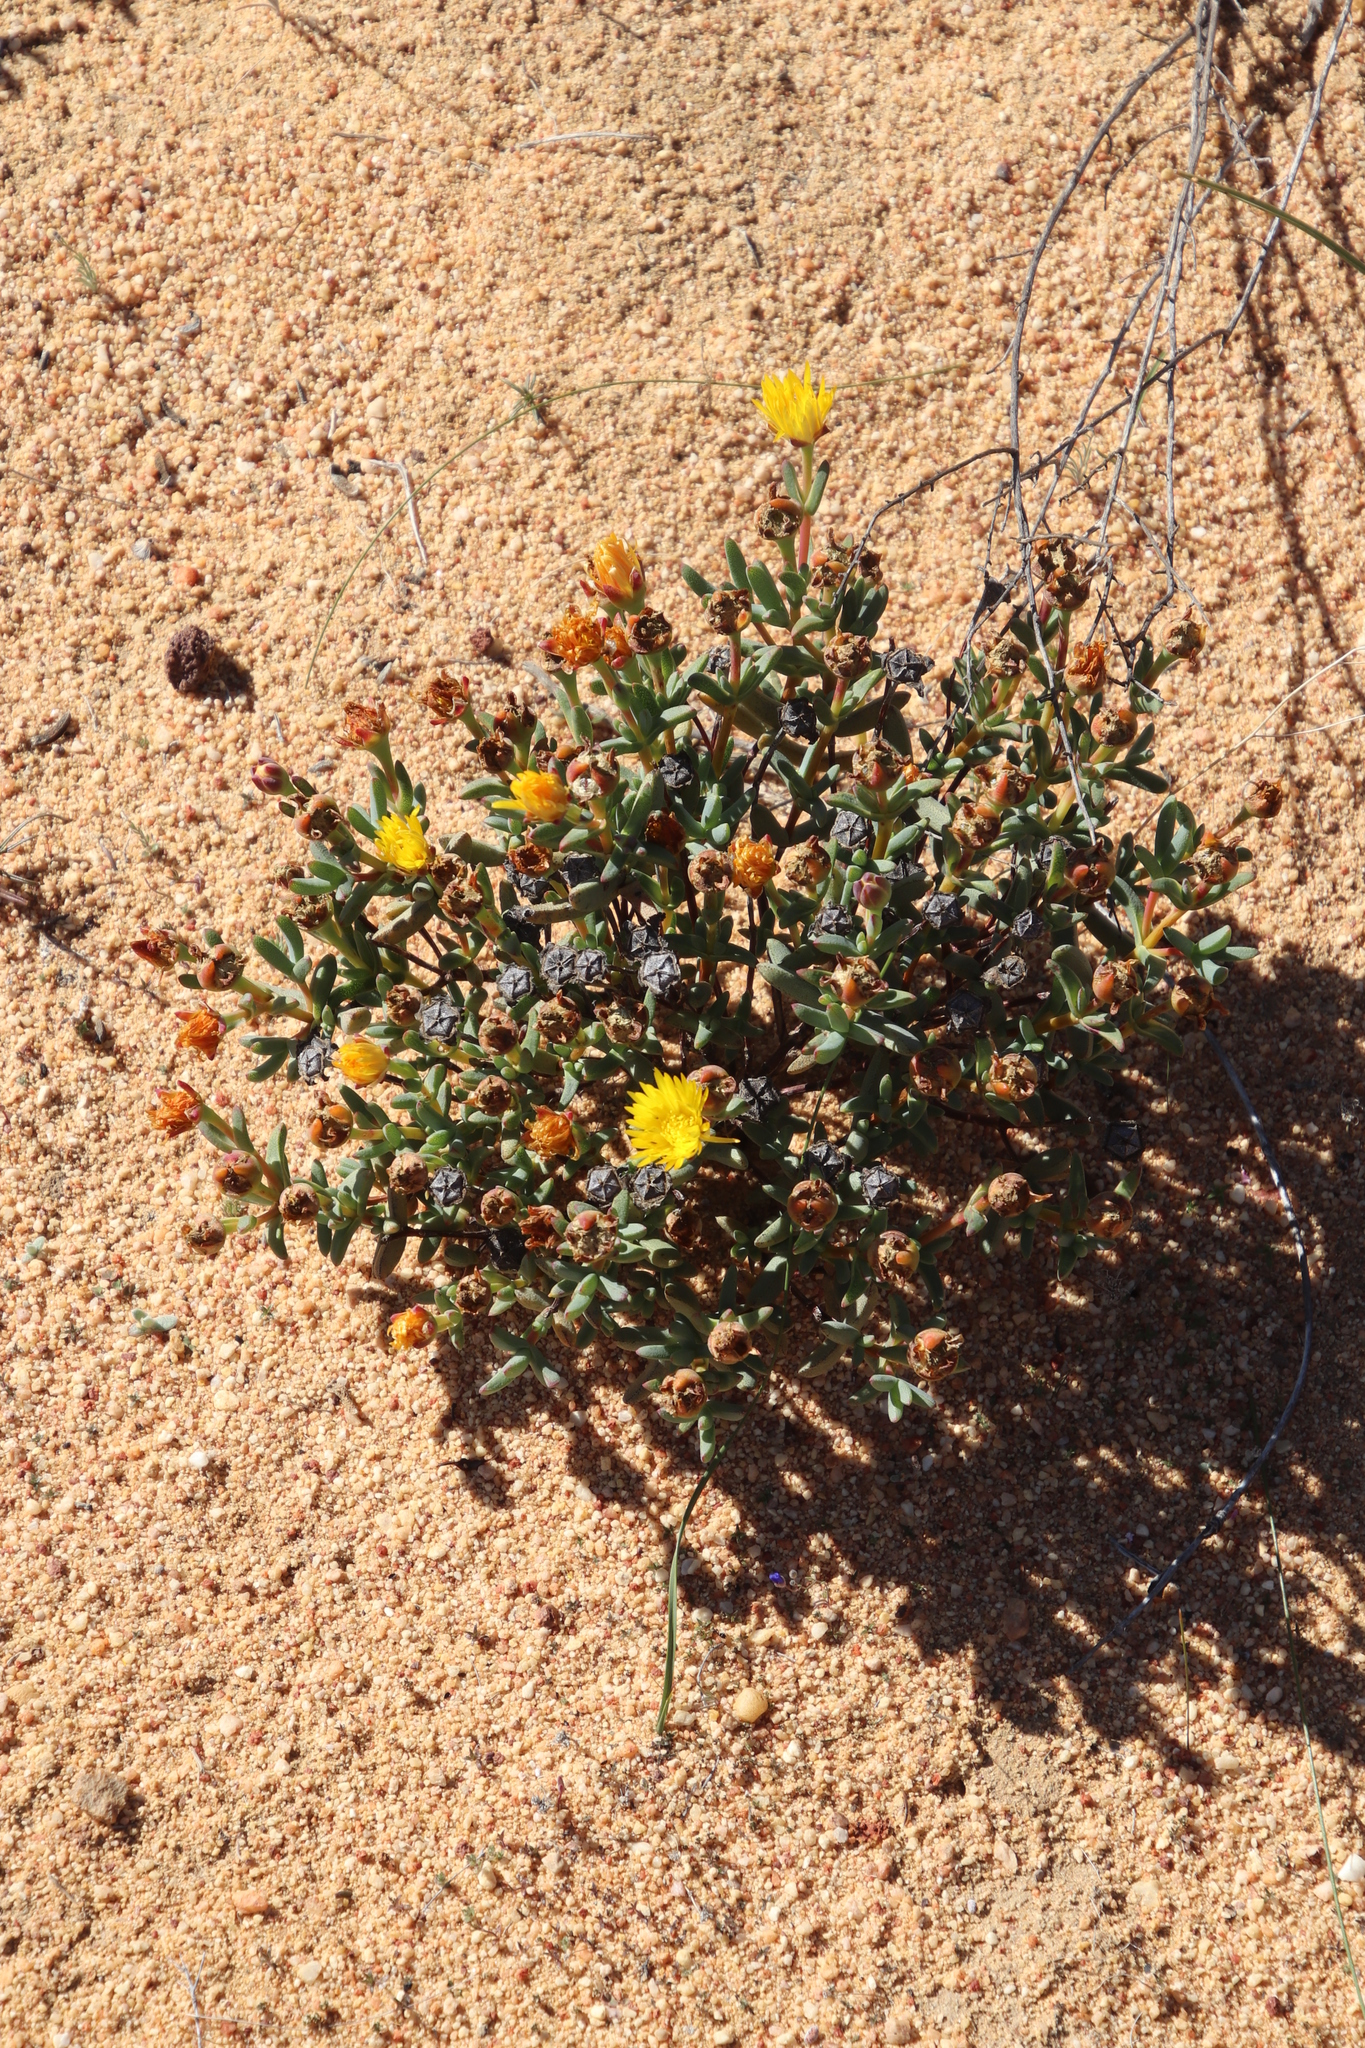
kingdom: Plantae
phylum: Tracheophyta
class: Magnoliopsida
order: Caryophyllales
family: Aizoaceae
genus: Lampranthus
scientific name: Lampranthus glaucus
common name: Noonflower
